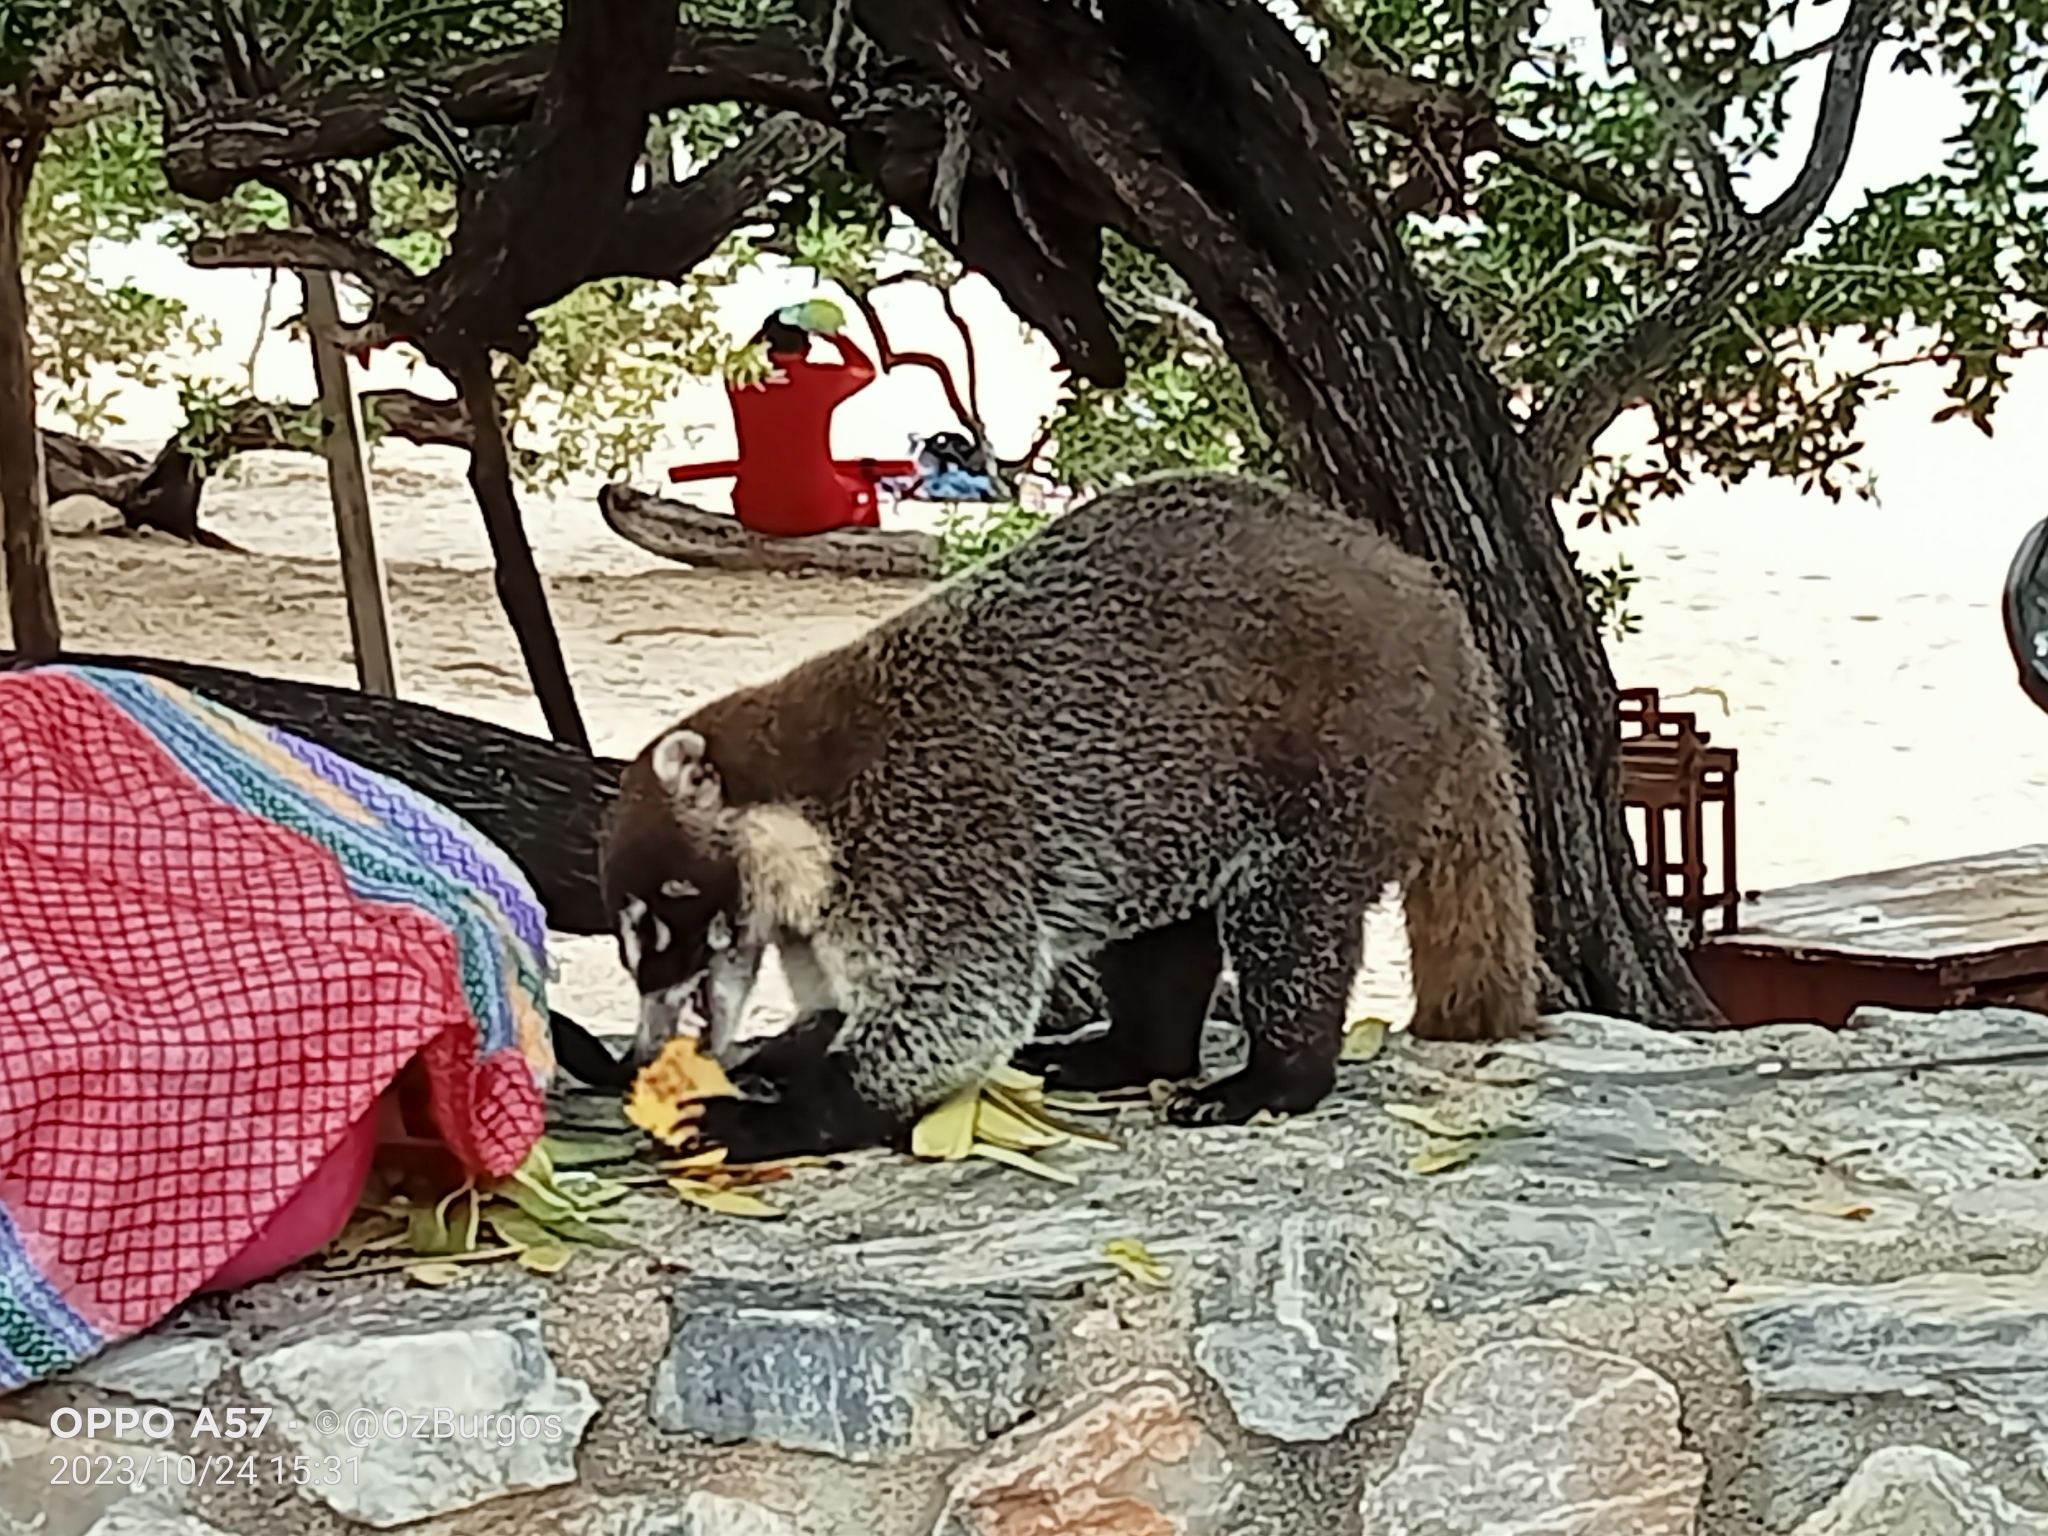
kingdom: Animalia
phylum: Chordata
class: Mammalia
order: Carnivora
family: Procyonidae
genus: Nasua
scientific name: Nasua narica
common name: White-nosed coati
